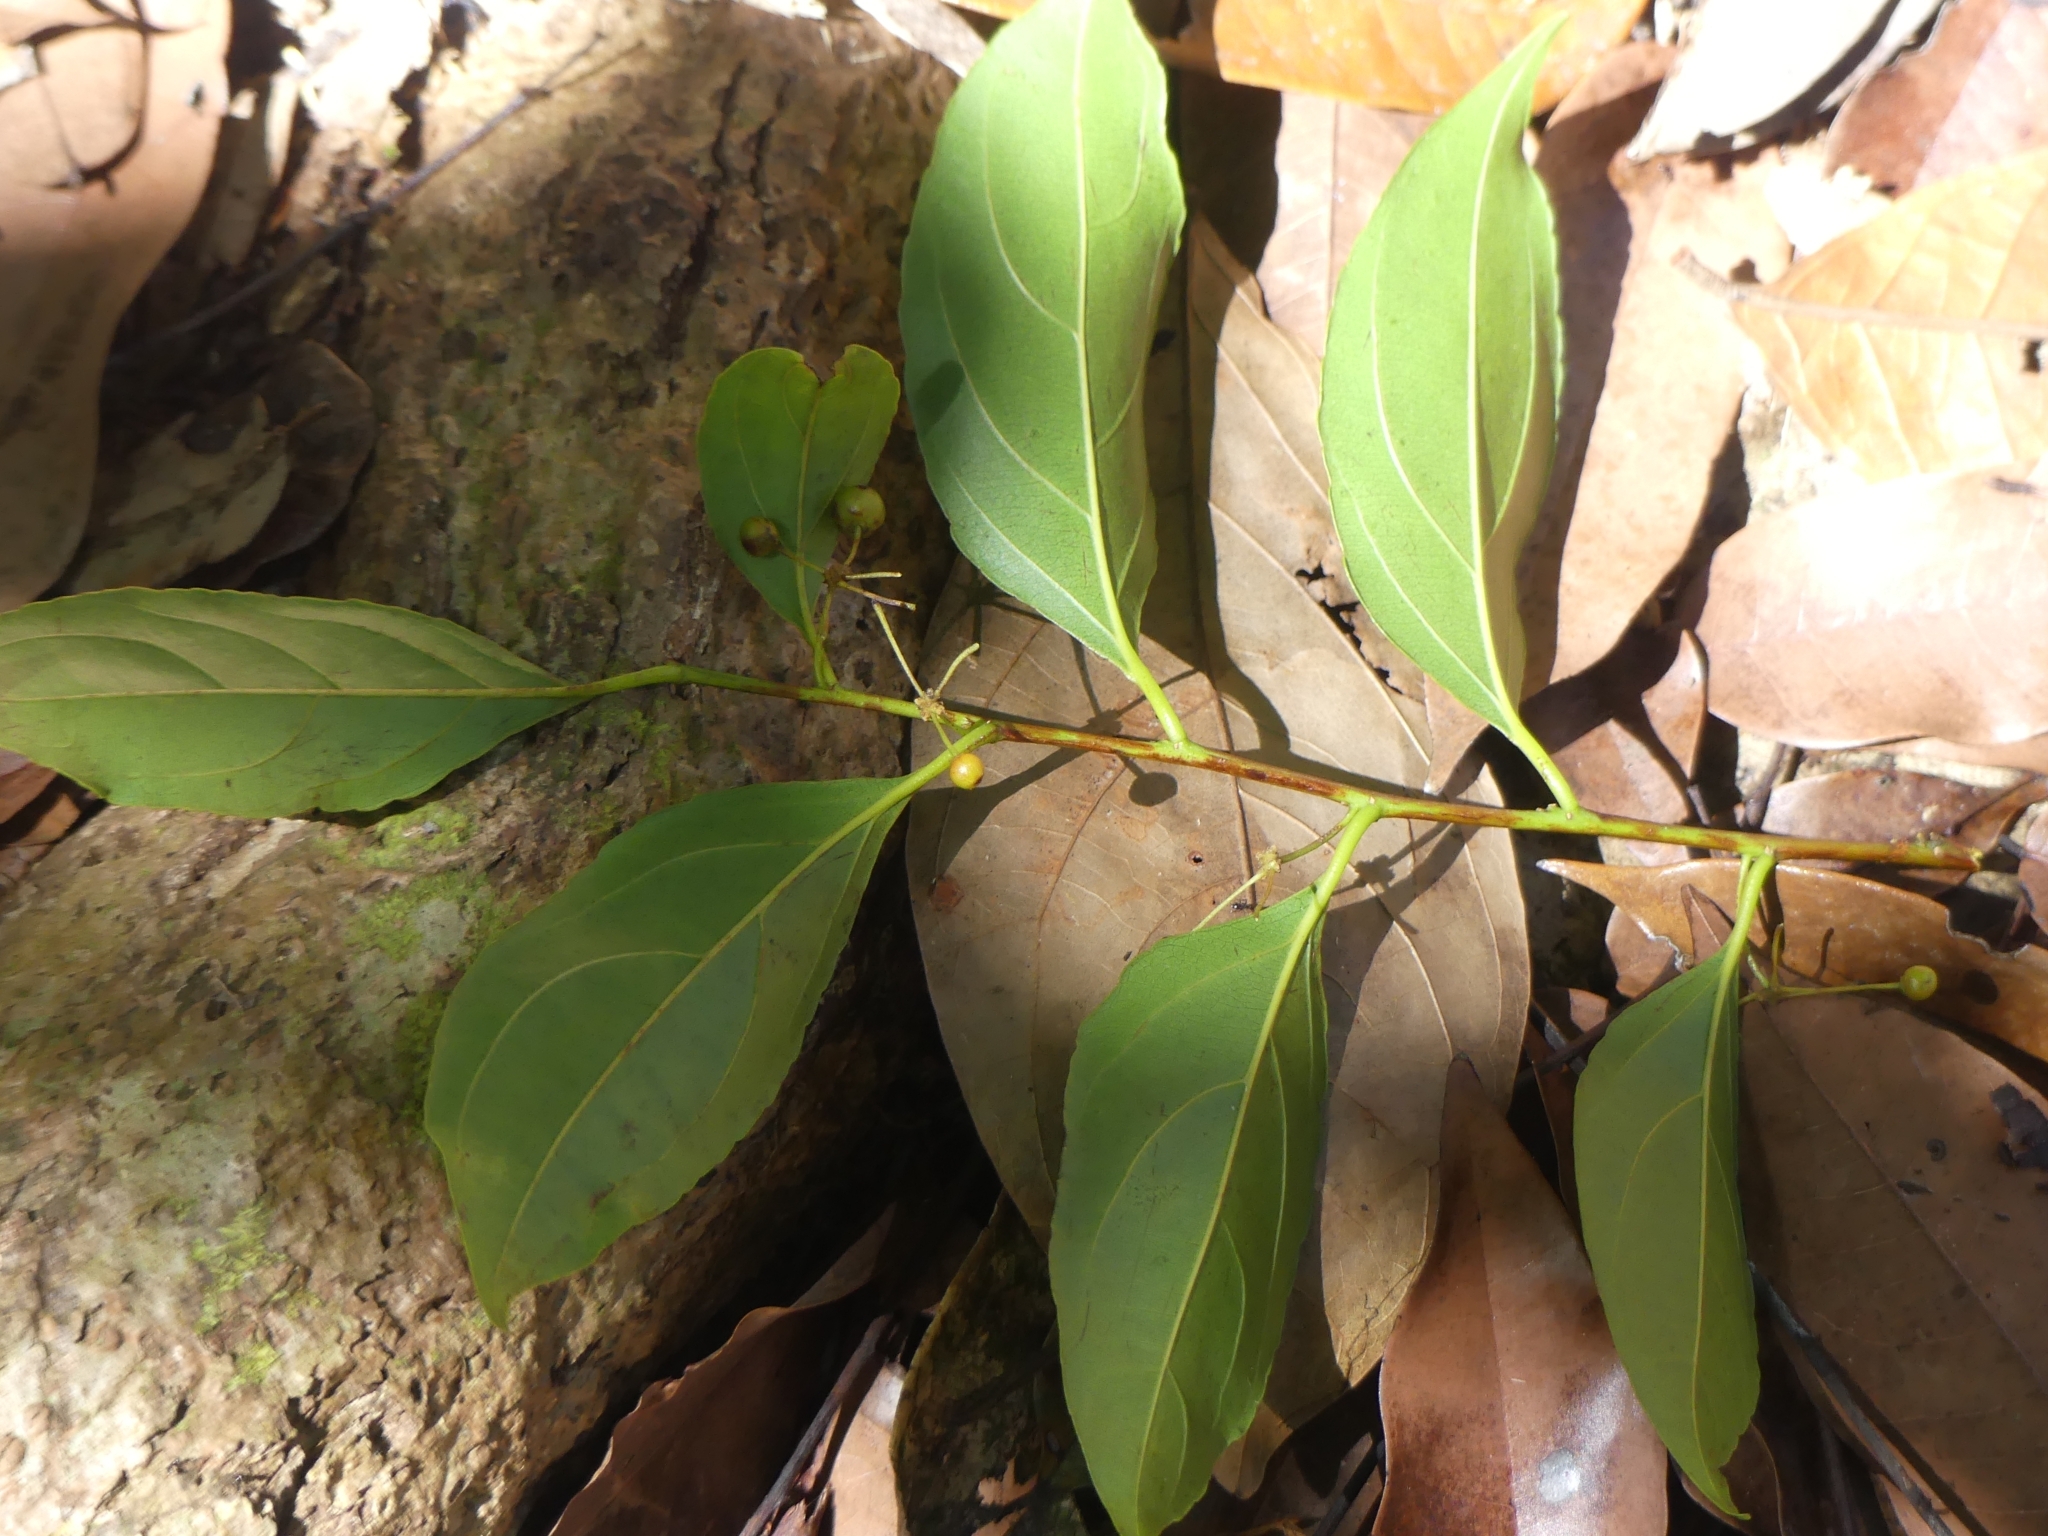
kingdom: Plantae
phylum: Tracheophyta
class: Magnoliopsida
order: Malpighiales
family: Goupiaceae
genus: Goupia
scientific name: Goupia glabra
